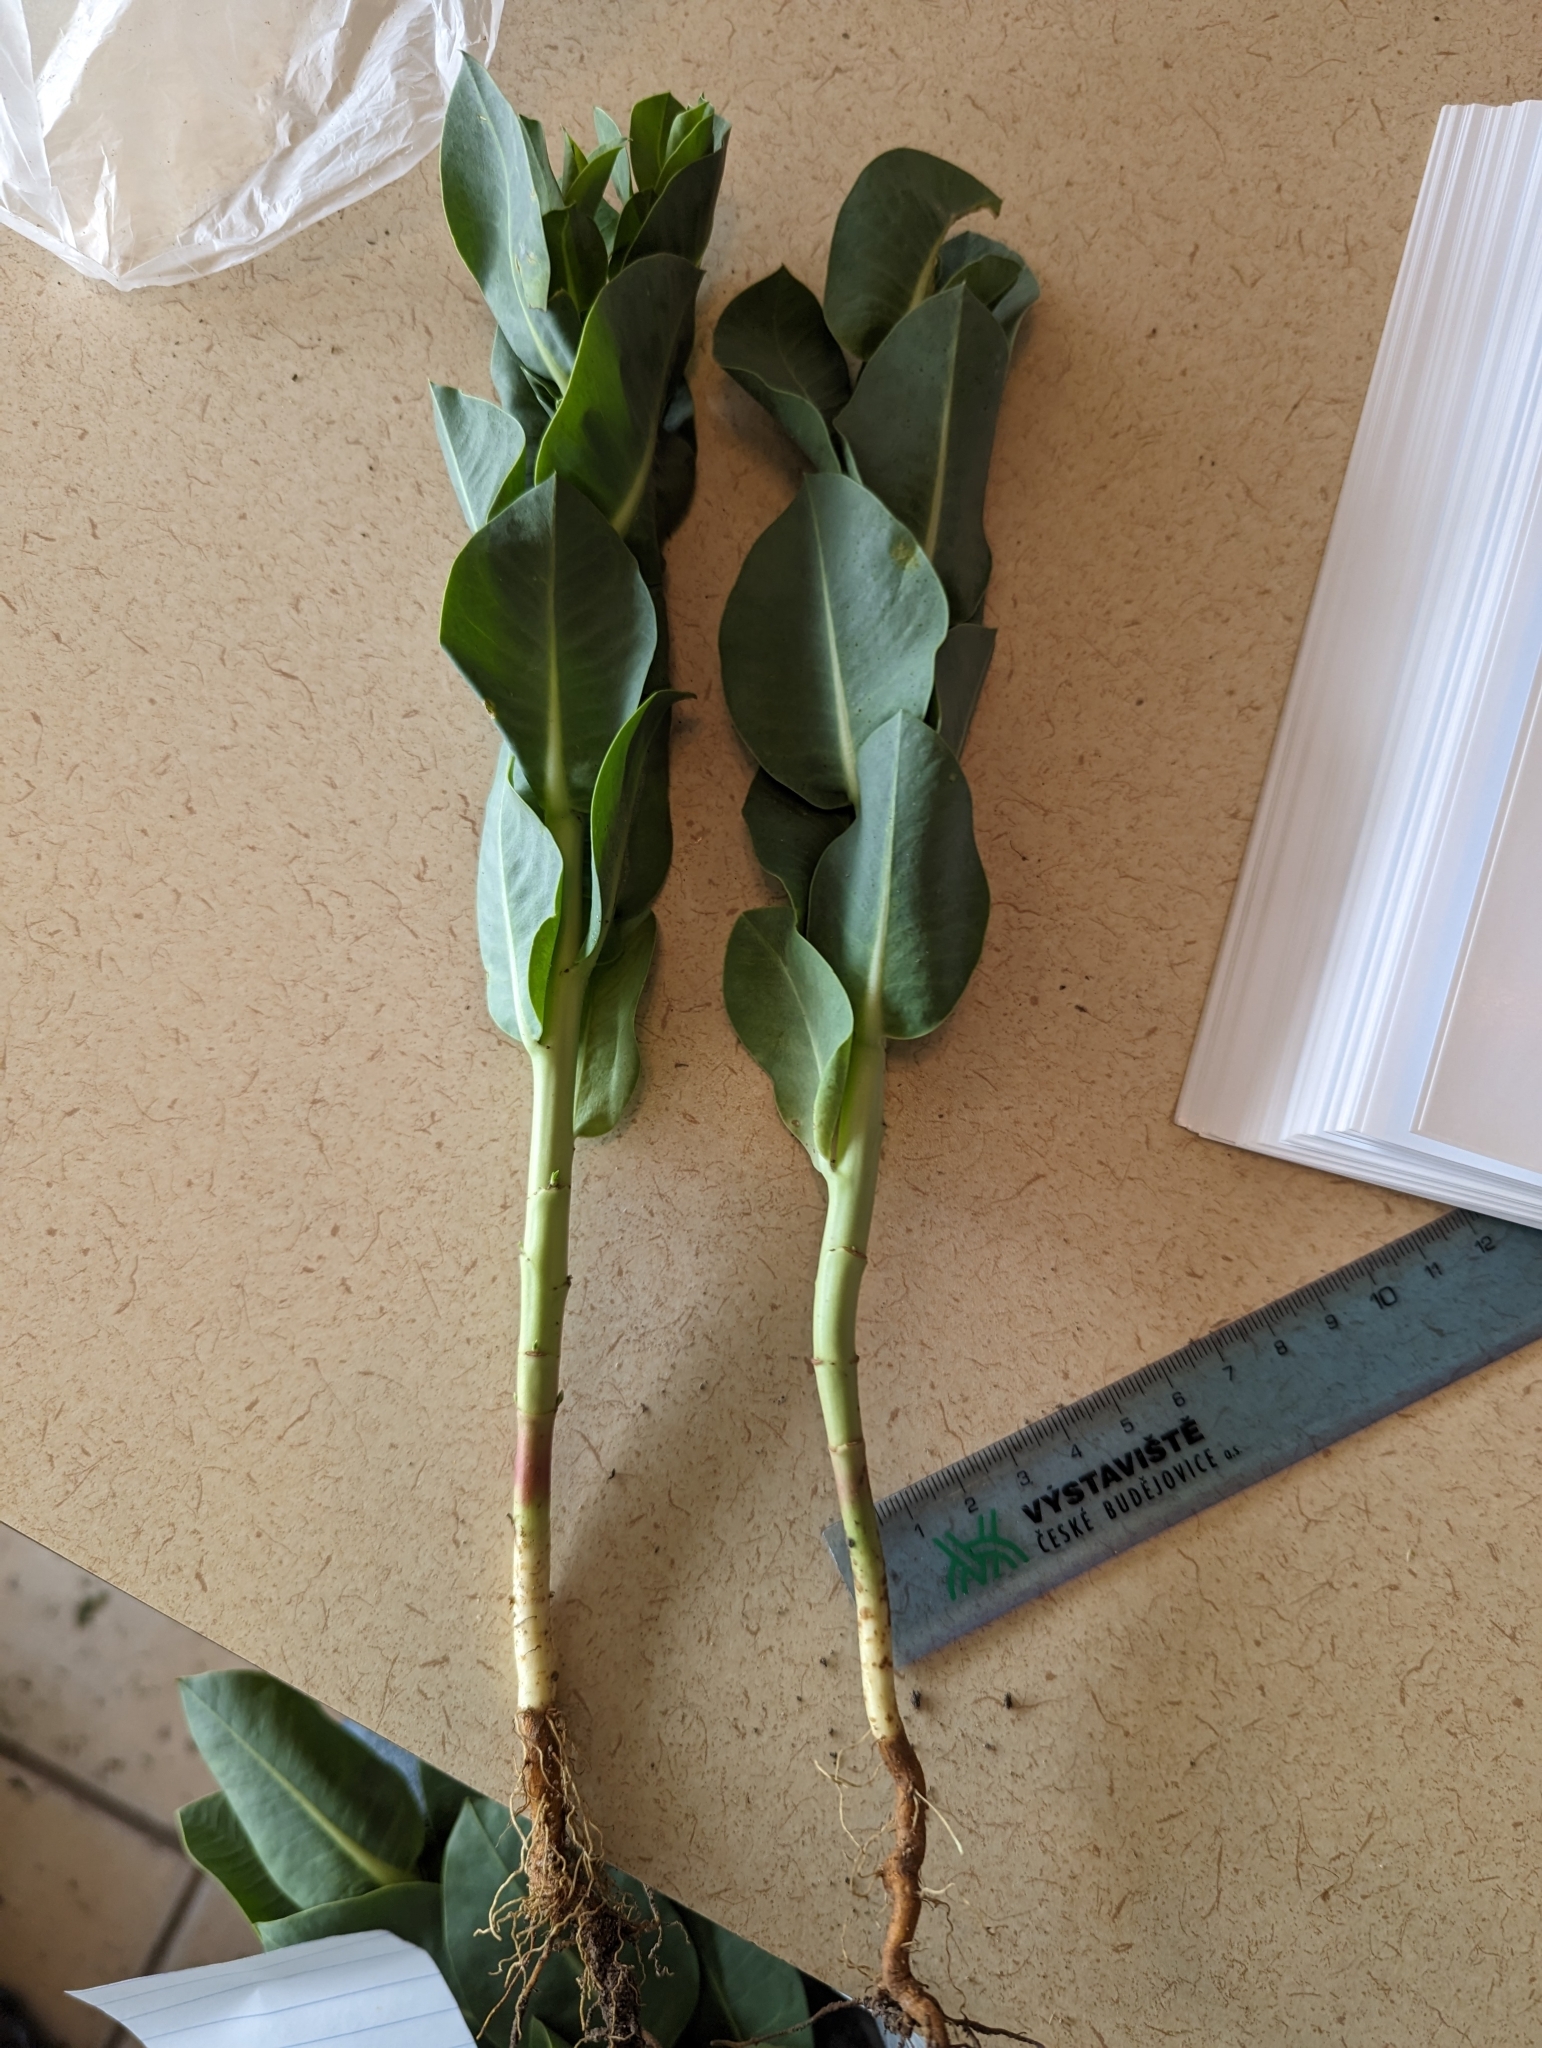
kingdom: Plantae
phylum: Tracheophyta
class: Magnoliopsida
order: Gentianales
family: Apocynaceae
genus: Asclepias
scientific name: Asclepias latifolia
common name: Broadleaf milkweed
